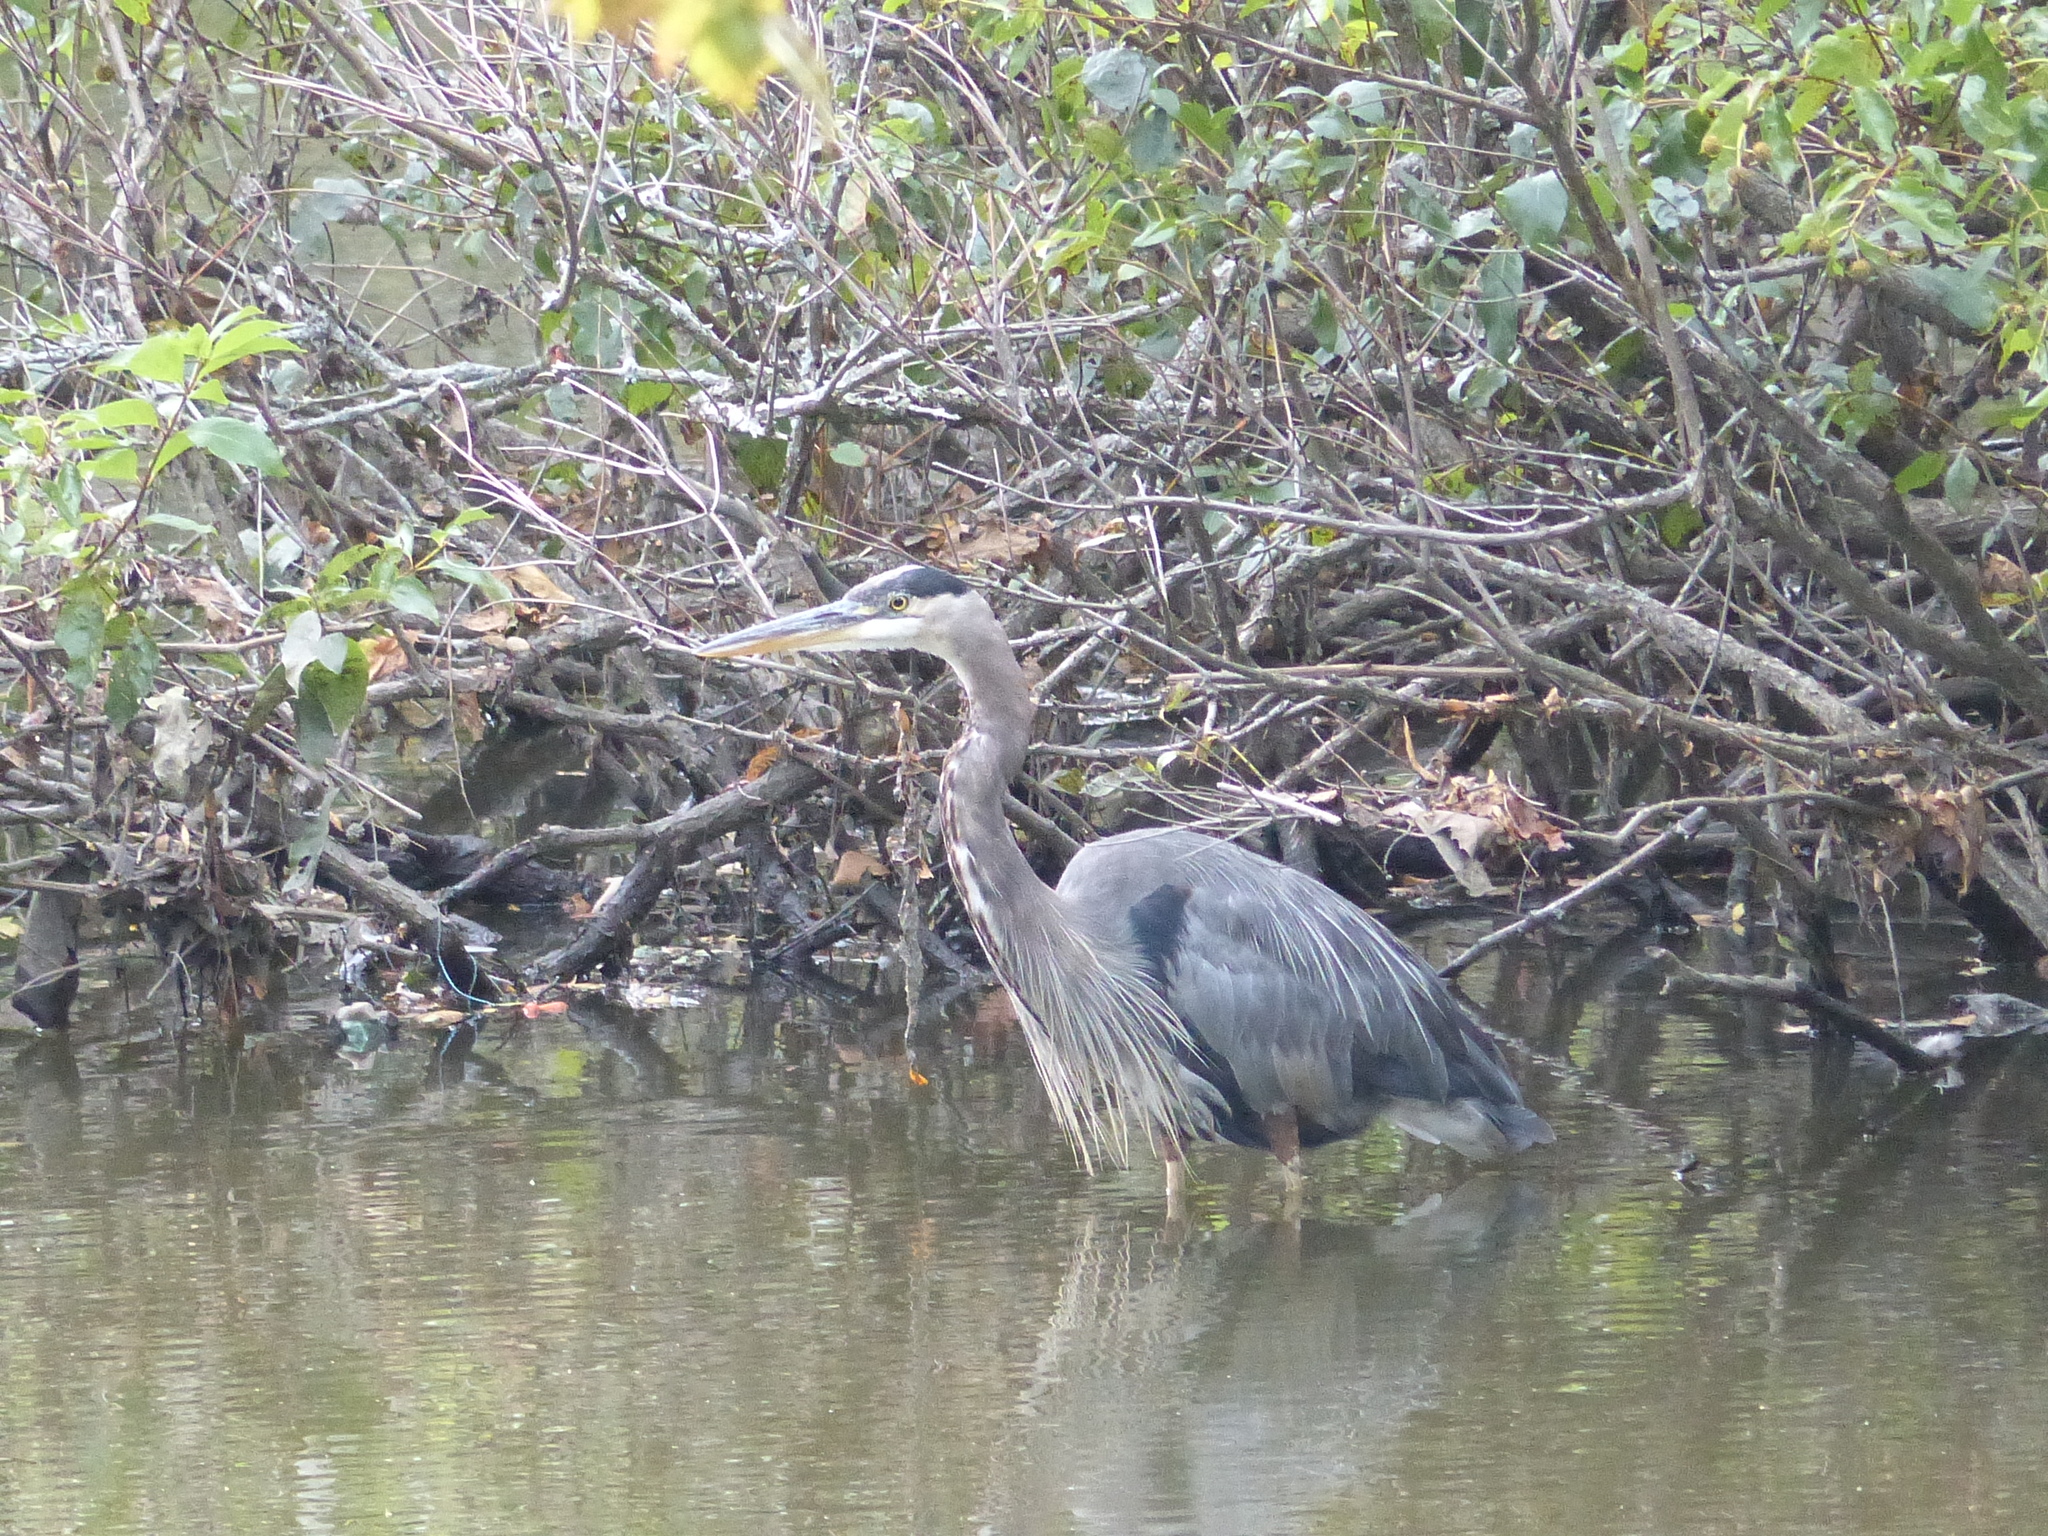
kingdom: Animalia
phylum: Chordata
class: Aves
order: Pelecaniformes
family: Ardeidae
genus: Ardea
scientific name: Ardea herodias
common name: Great blue heron
